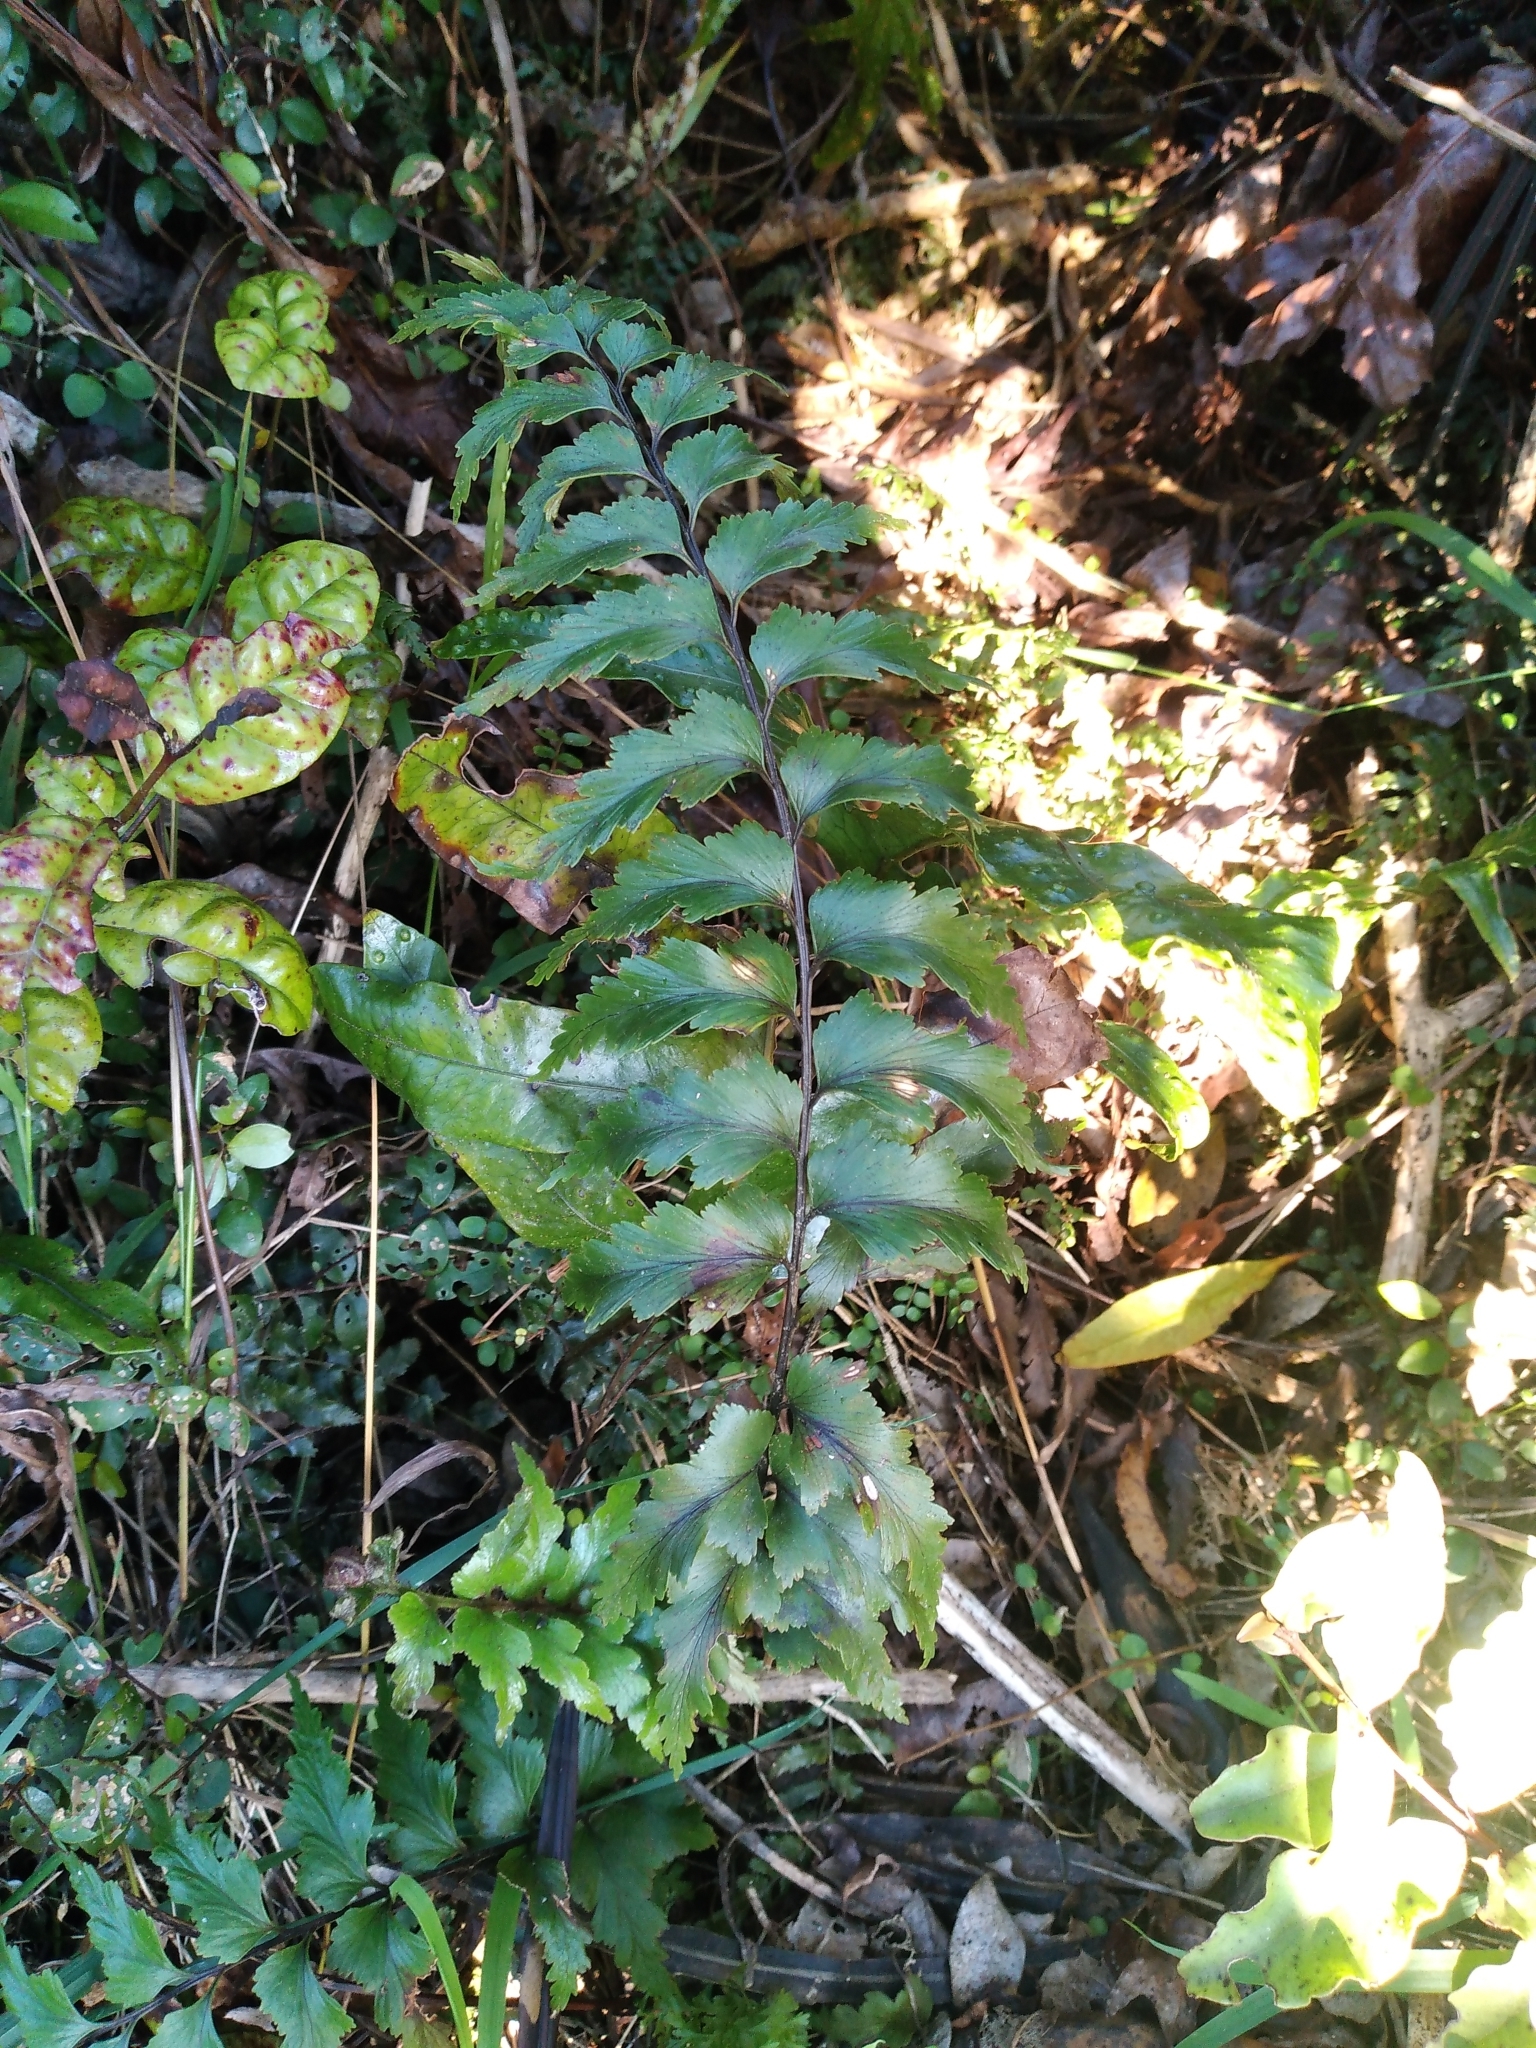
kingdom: Plantae
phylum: Tracheophyta
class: Polypodiopsida
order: Polypodiales
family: Aspleniaceae
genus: Asplenium
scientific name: Asplenium polyodon
